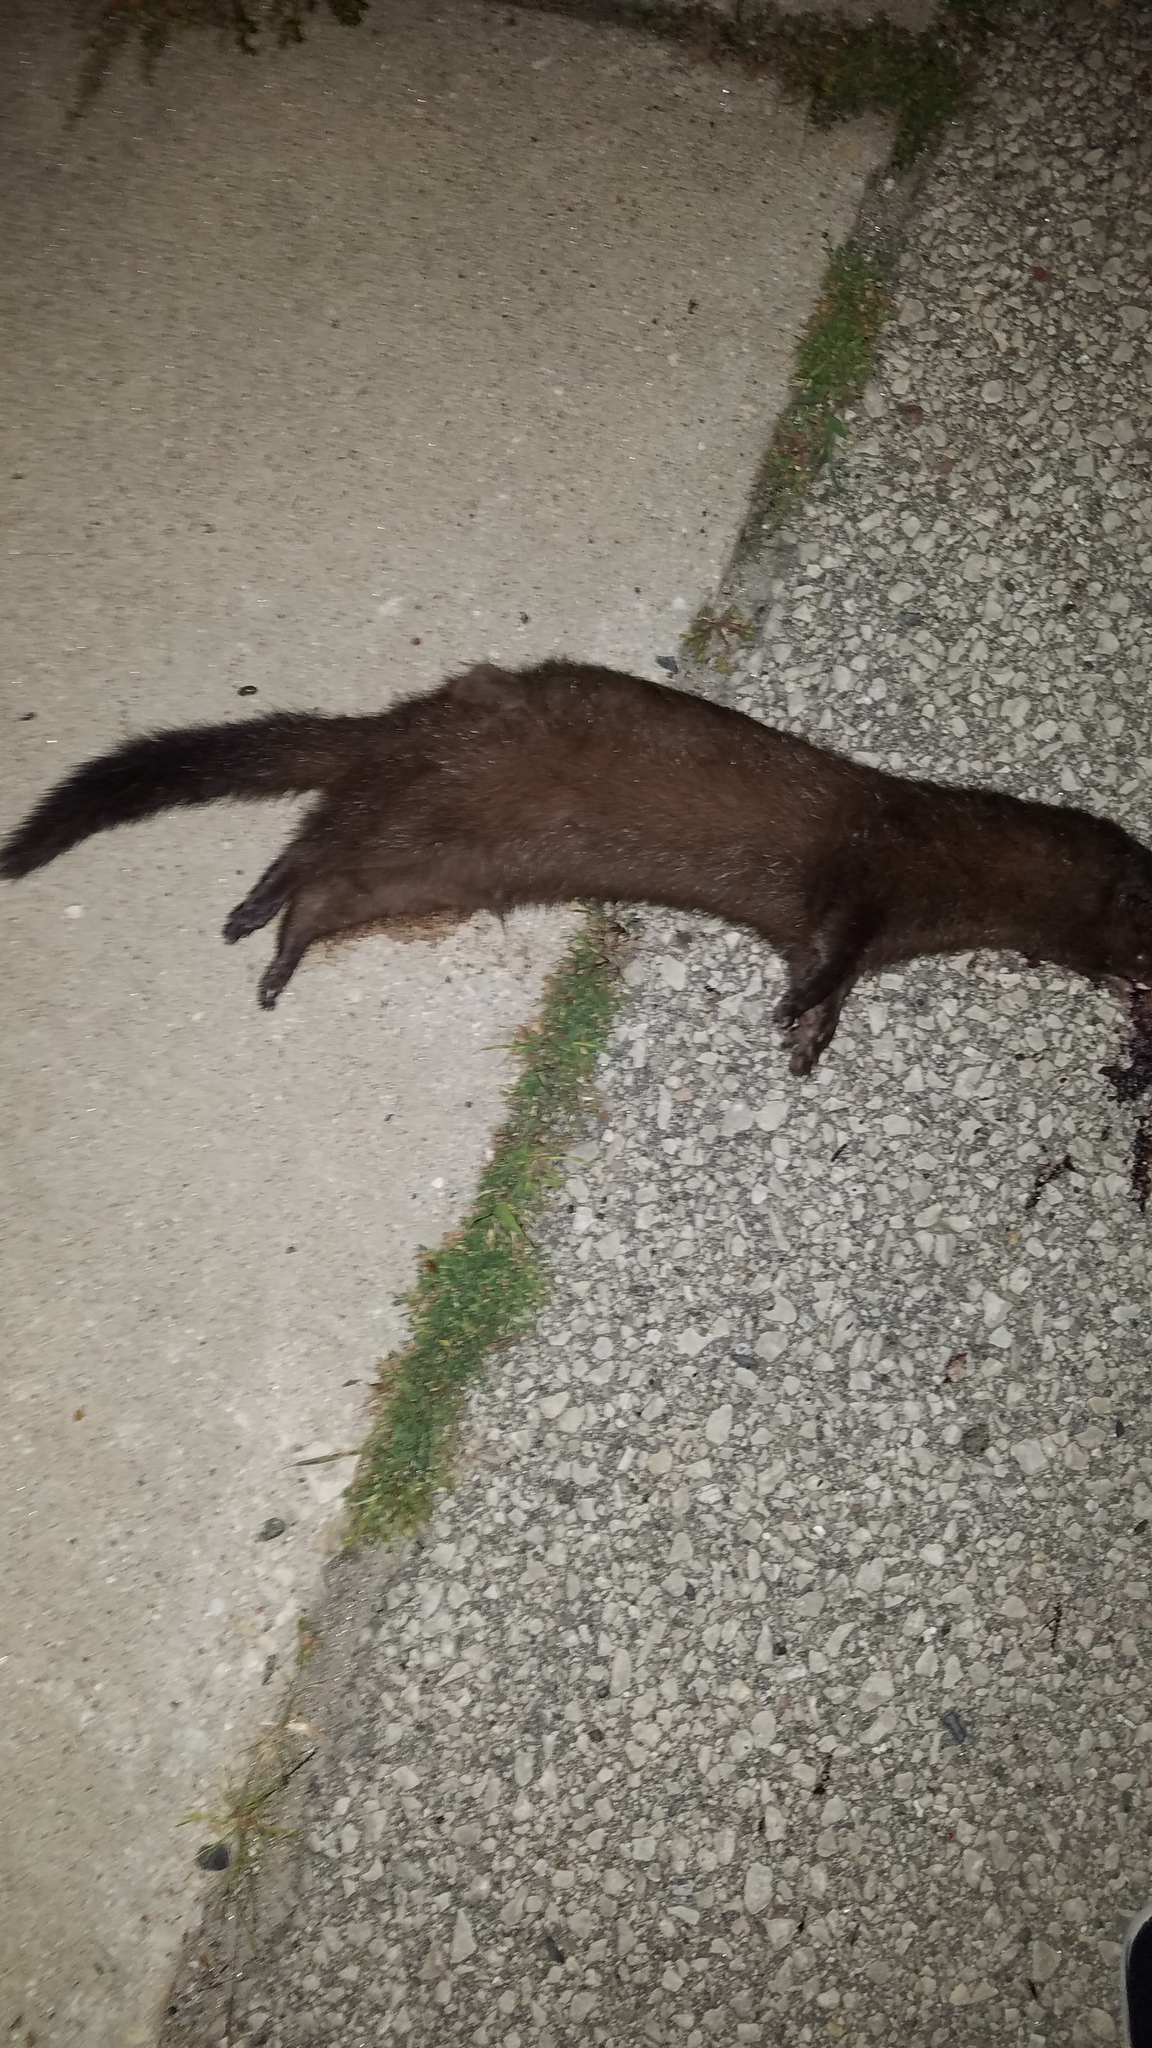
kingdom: Animalia
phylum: Chordata
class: Mammalia
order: Carnivora
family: Mustelidae
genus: Mustela
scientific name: Mustela
